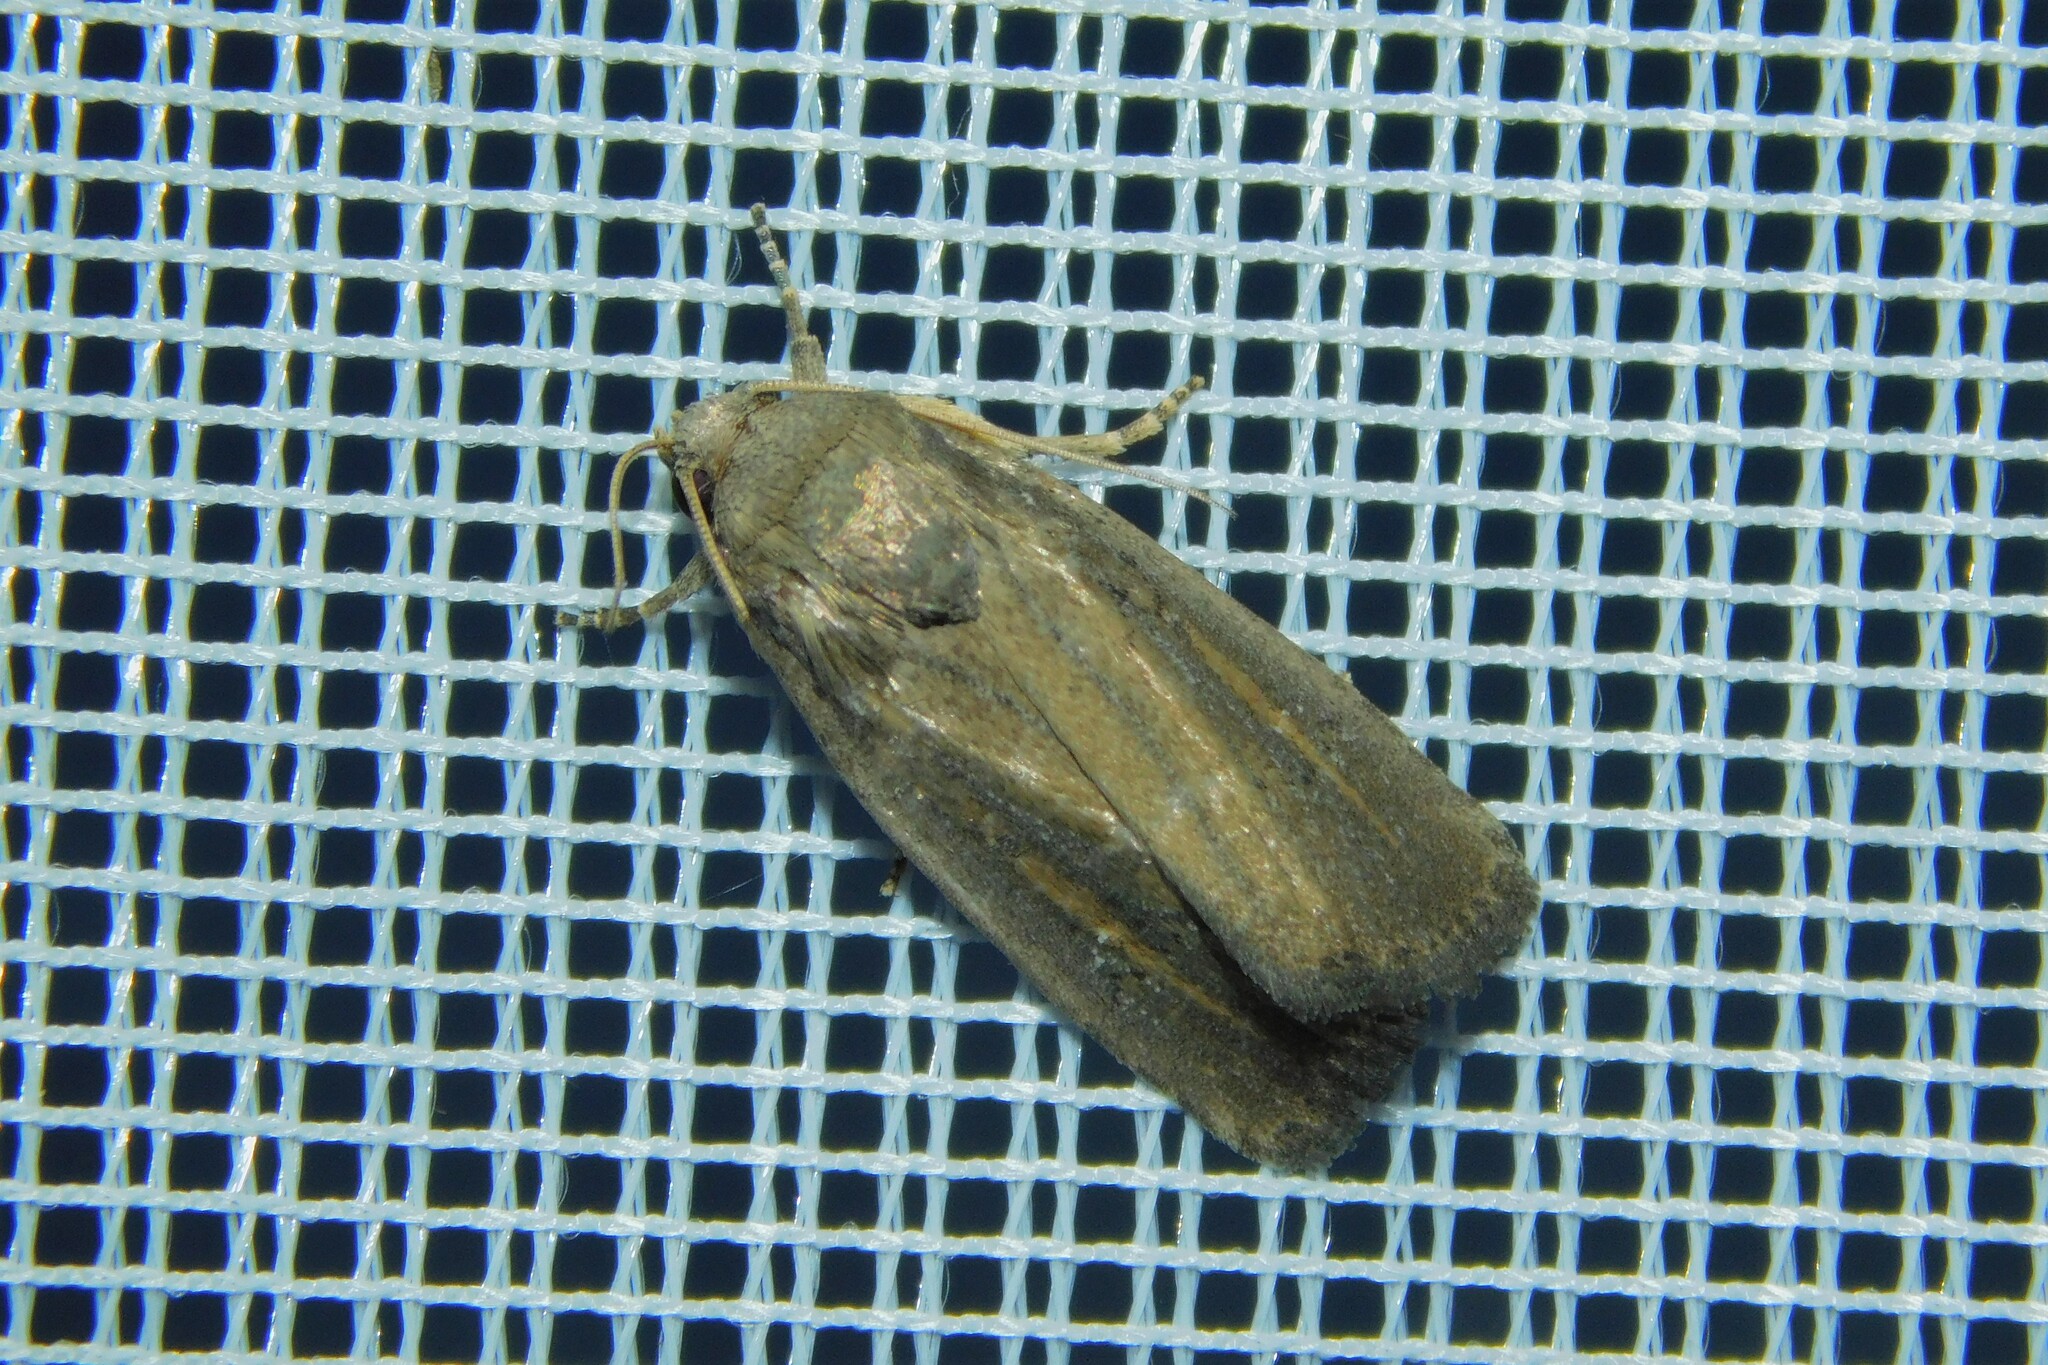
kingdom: Animalia
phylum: Arthropoda
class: Insecta
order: Lepidoptera
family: Noctuidae
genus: Athetis
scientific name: Athetis hospes
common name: Porter's rustic
